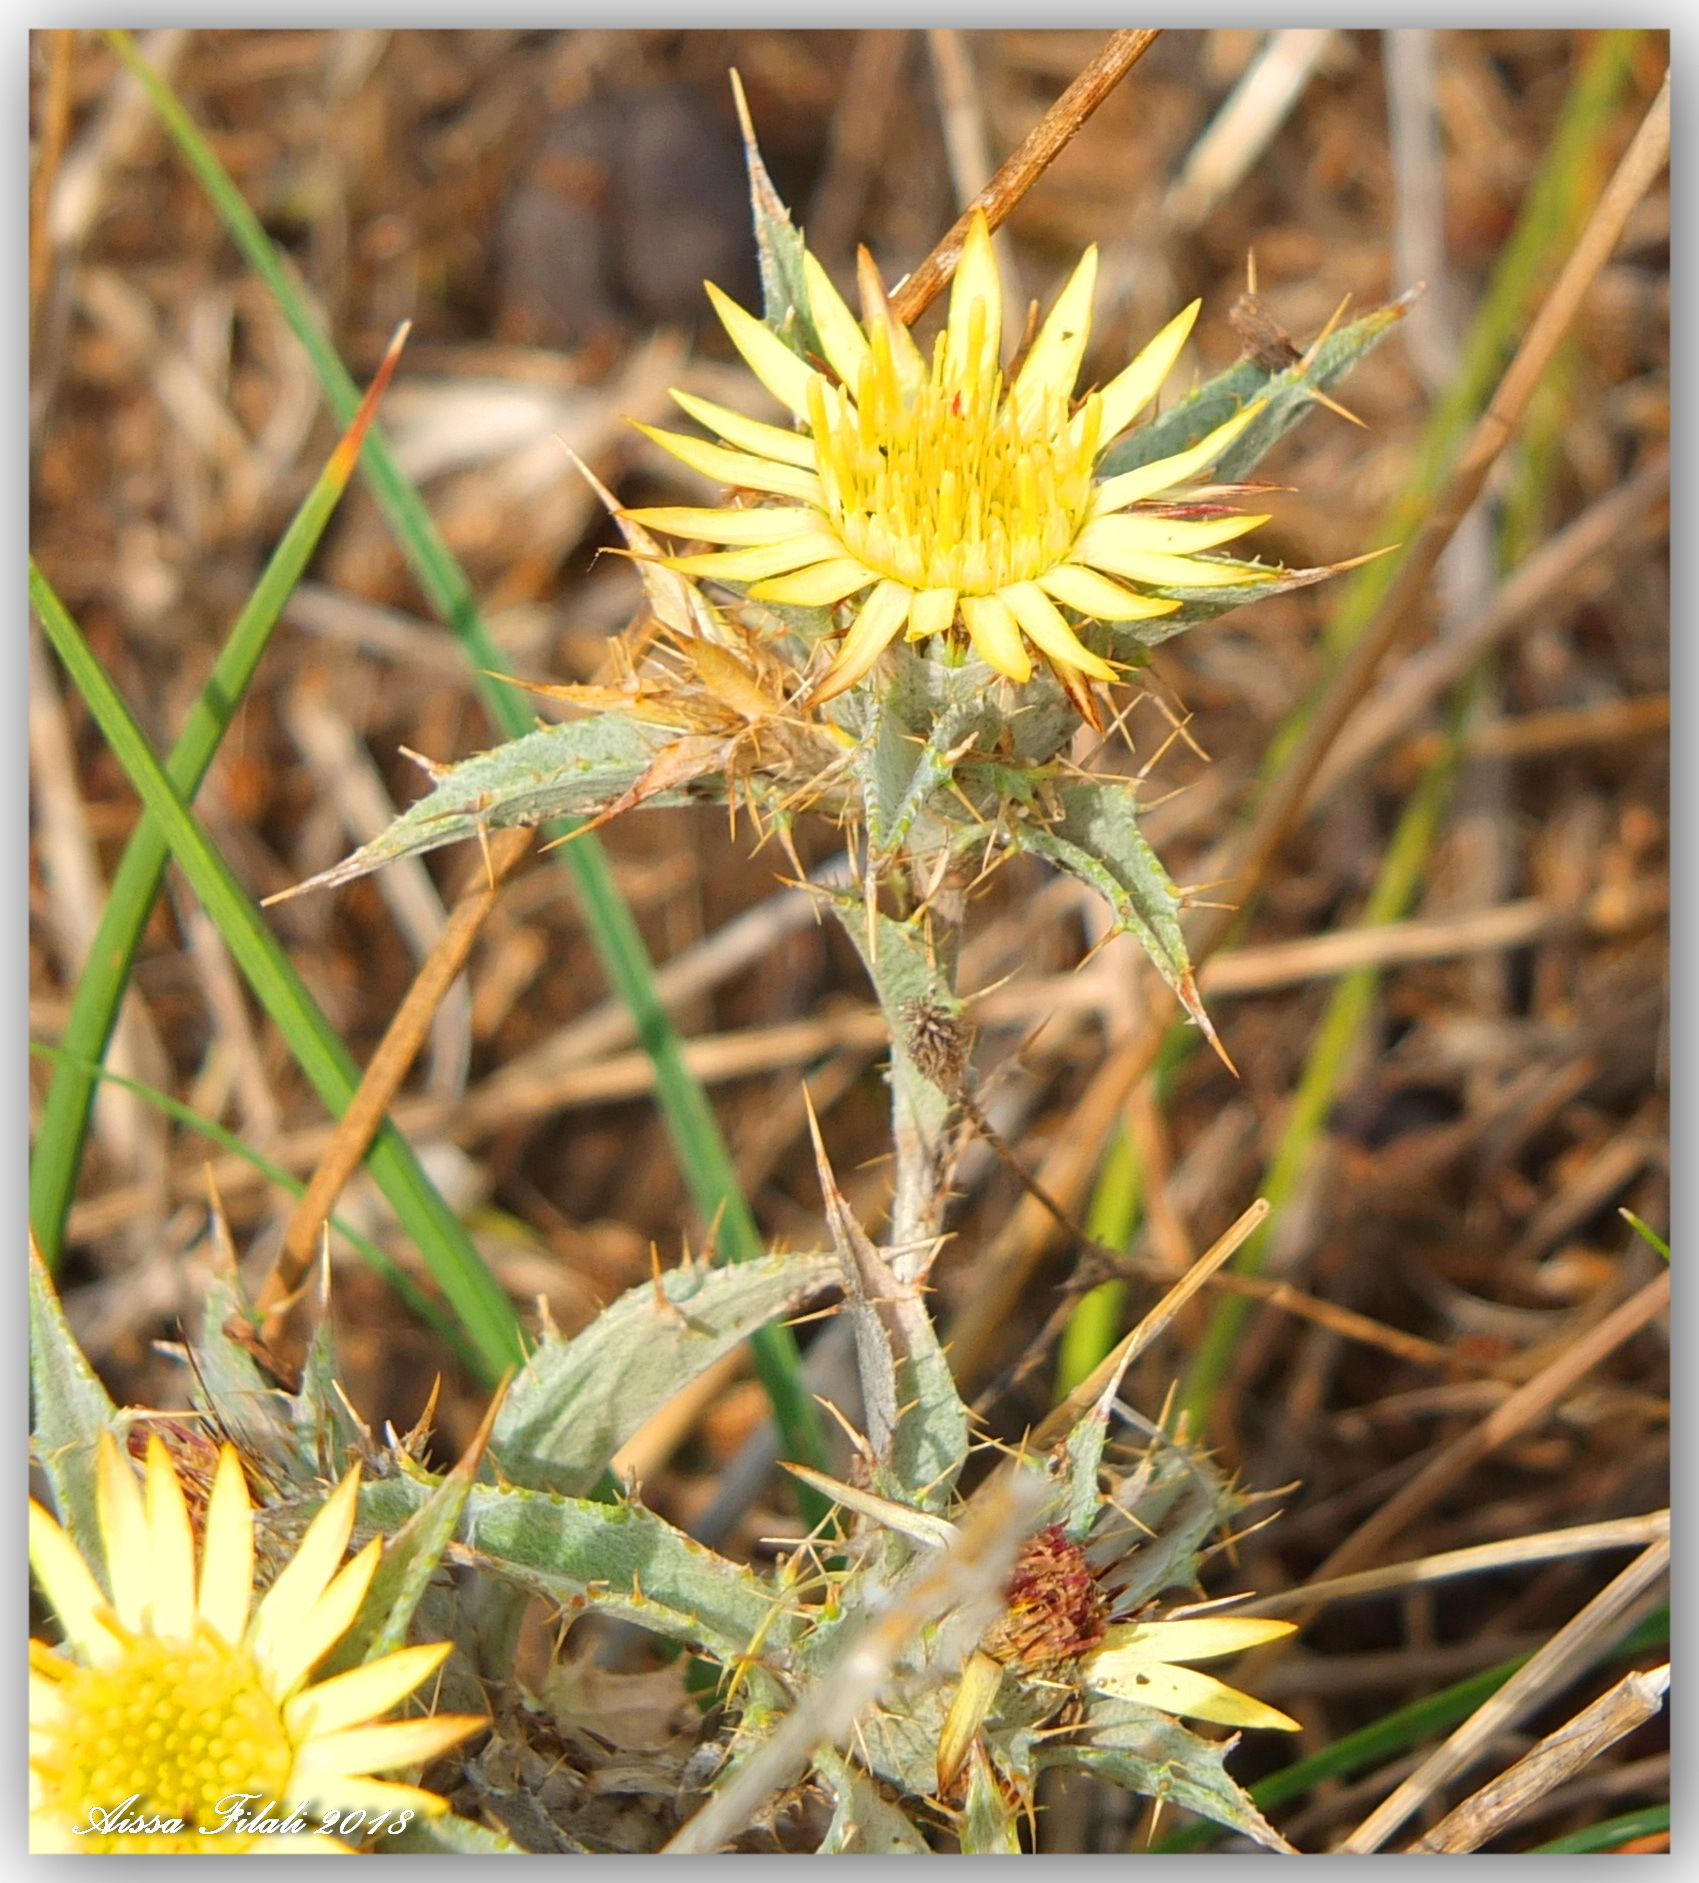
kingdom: Plantae
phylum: Tracheophyta
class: Magnoliopsida
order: Asterales
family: Asteraceae
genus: Carlina
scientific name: Carlina racemosa
